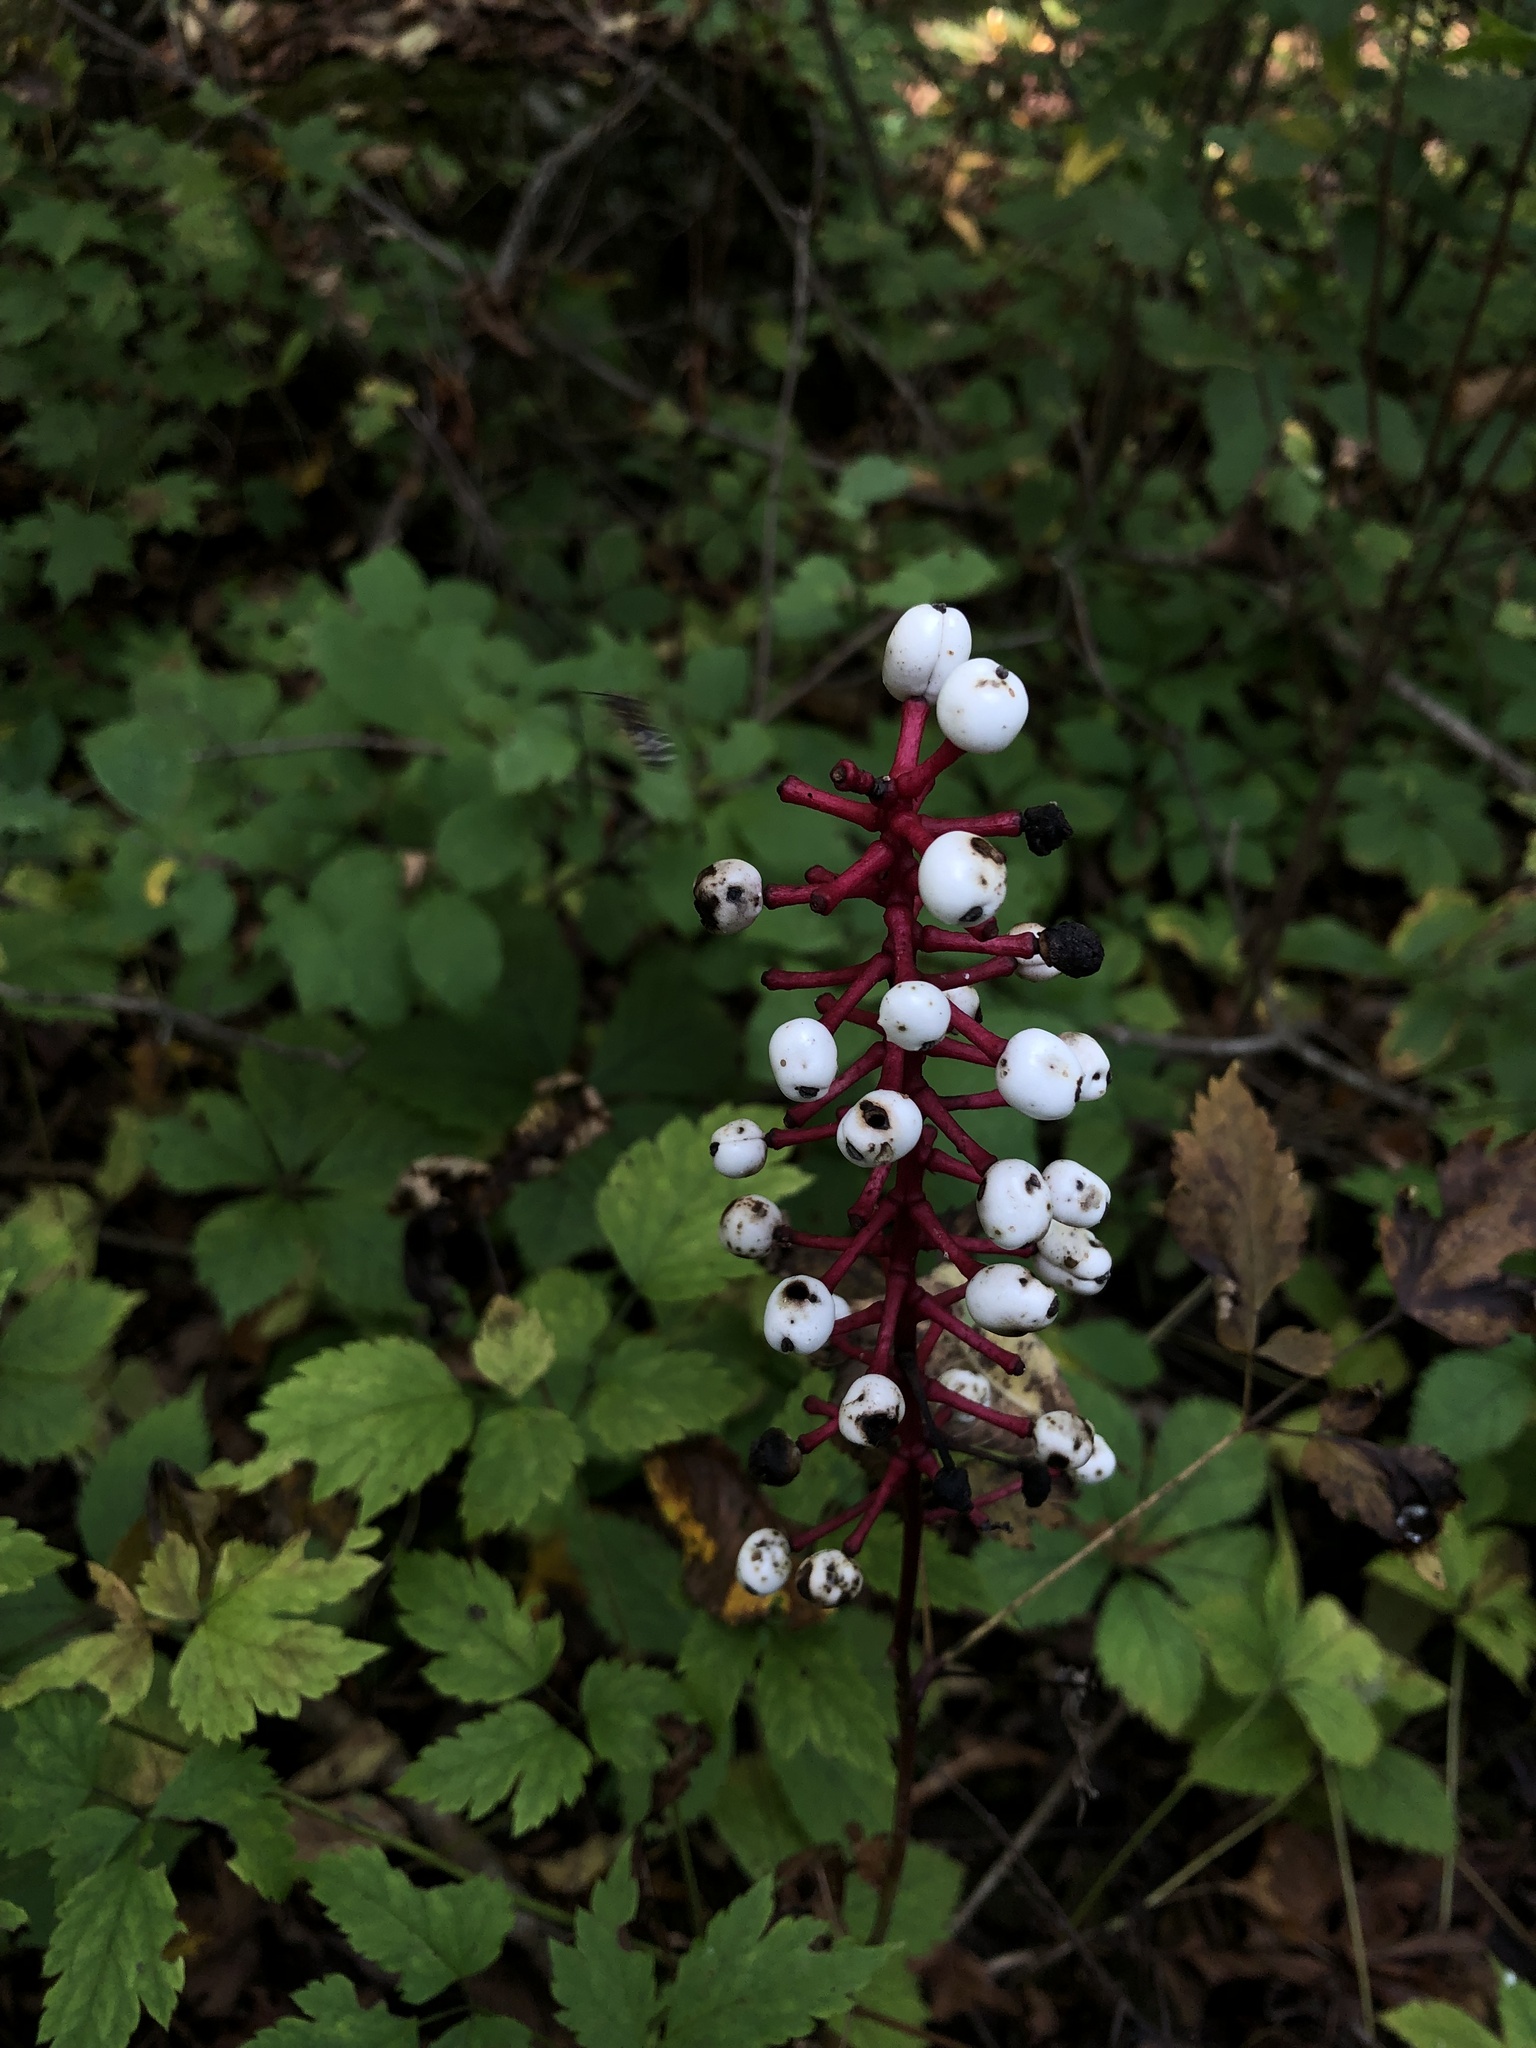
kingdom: Plantae
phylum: Tracheophyta
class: Magnoliopsida
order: Ranunculales
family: Ranunculaceae
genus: Actaea
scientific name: Actaea pachypoda
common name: Doll's-eyes
